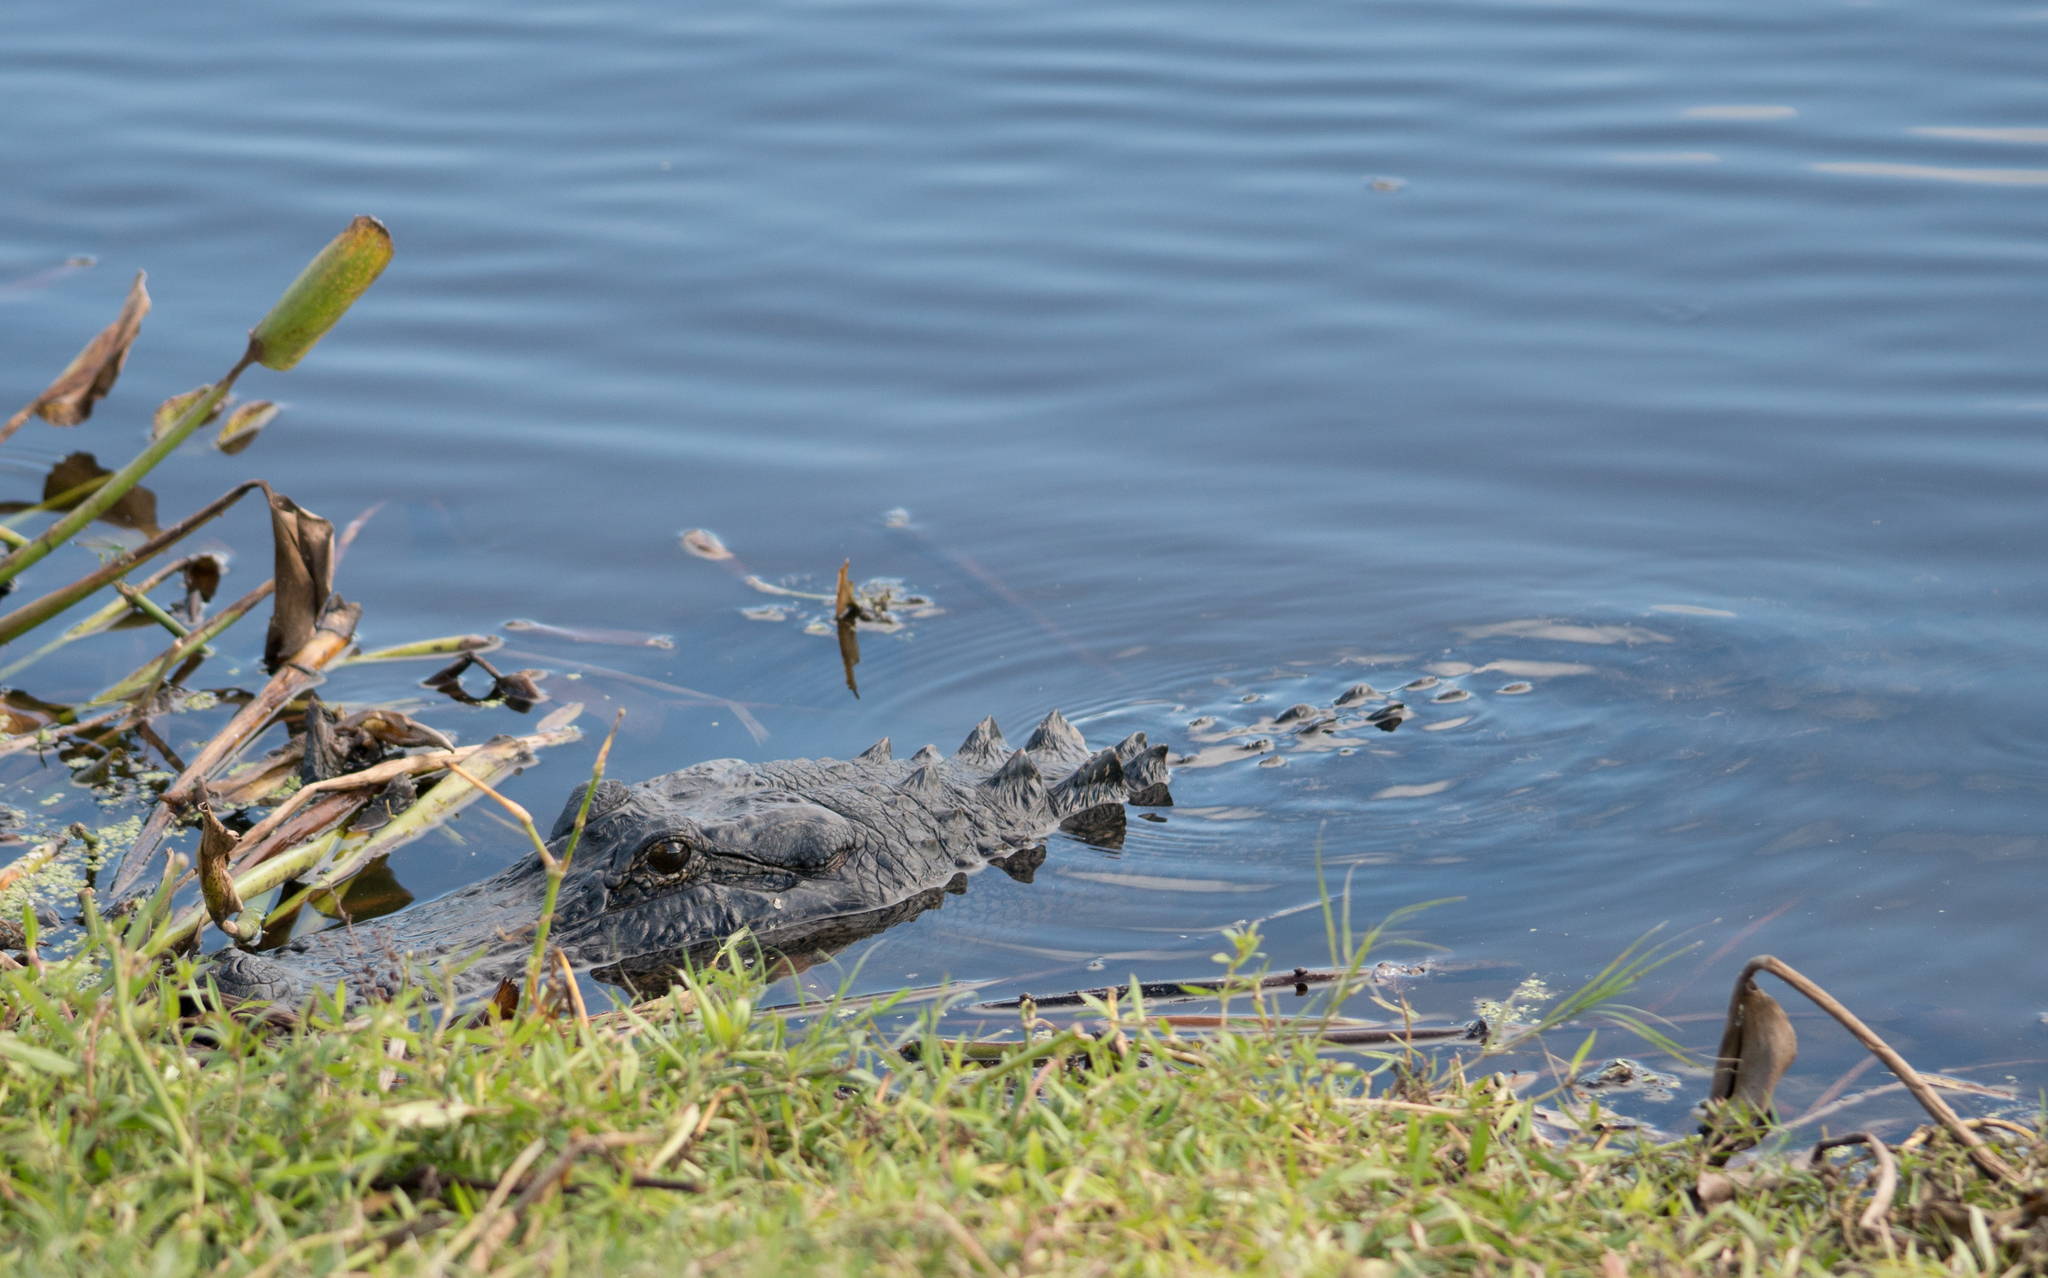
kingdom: Animalia
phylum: Chordata
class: Crocodylia
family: Alligatoridae
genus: Alligator
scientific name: Alligator mississippiensis
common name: American alligator
